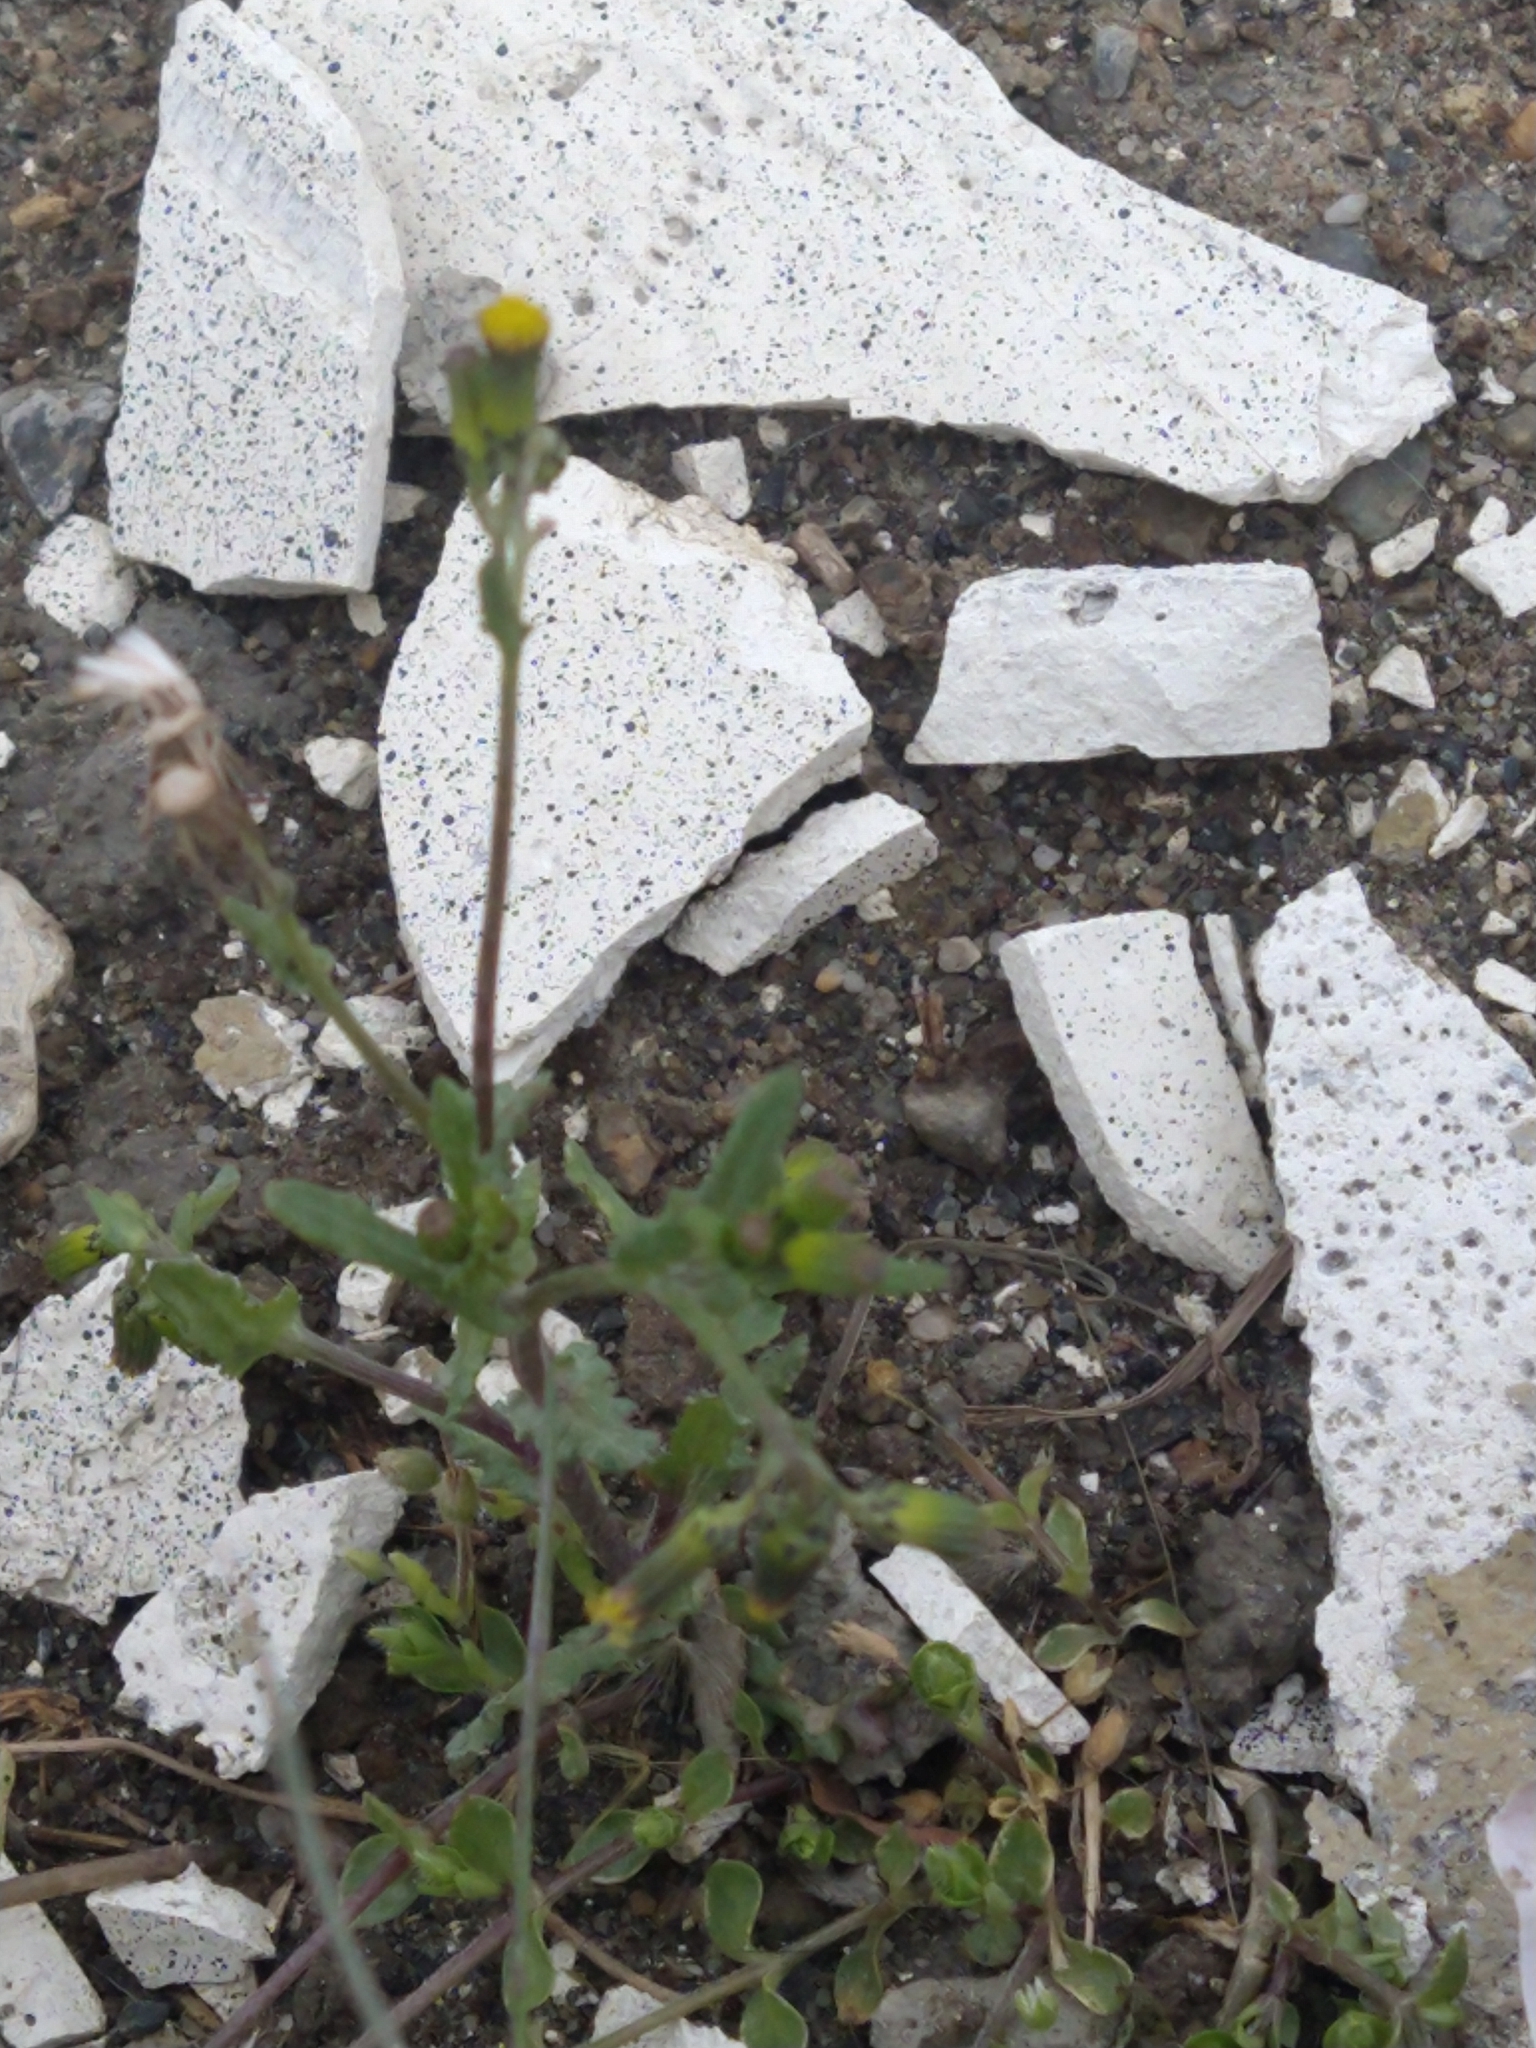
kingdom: Plantae
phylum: Tracheophyta
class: Magnoliopsida
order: Asterales
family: Asteraceae
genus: Senecio
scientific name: Senecio vulgaris
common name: Old-man-in-the-spring
